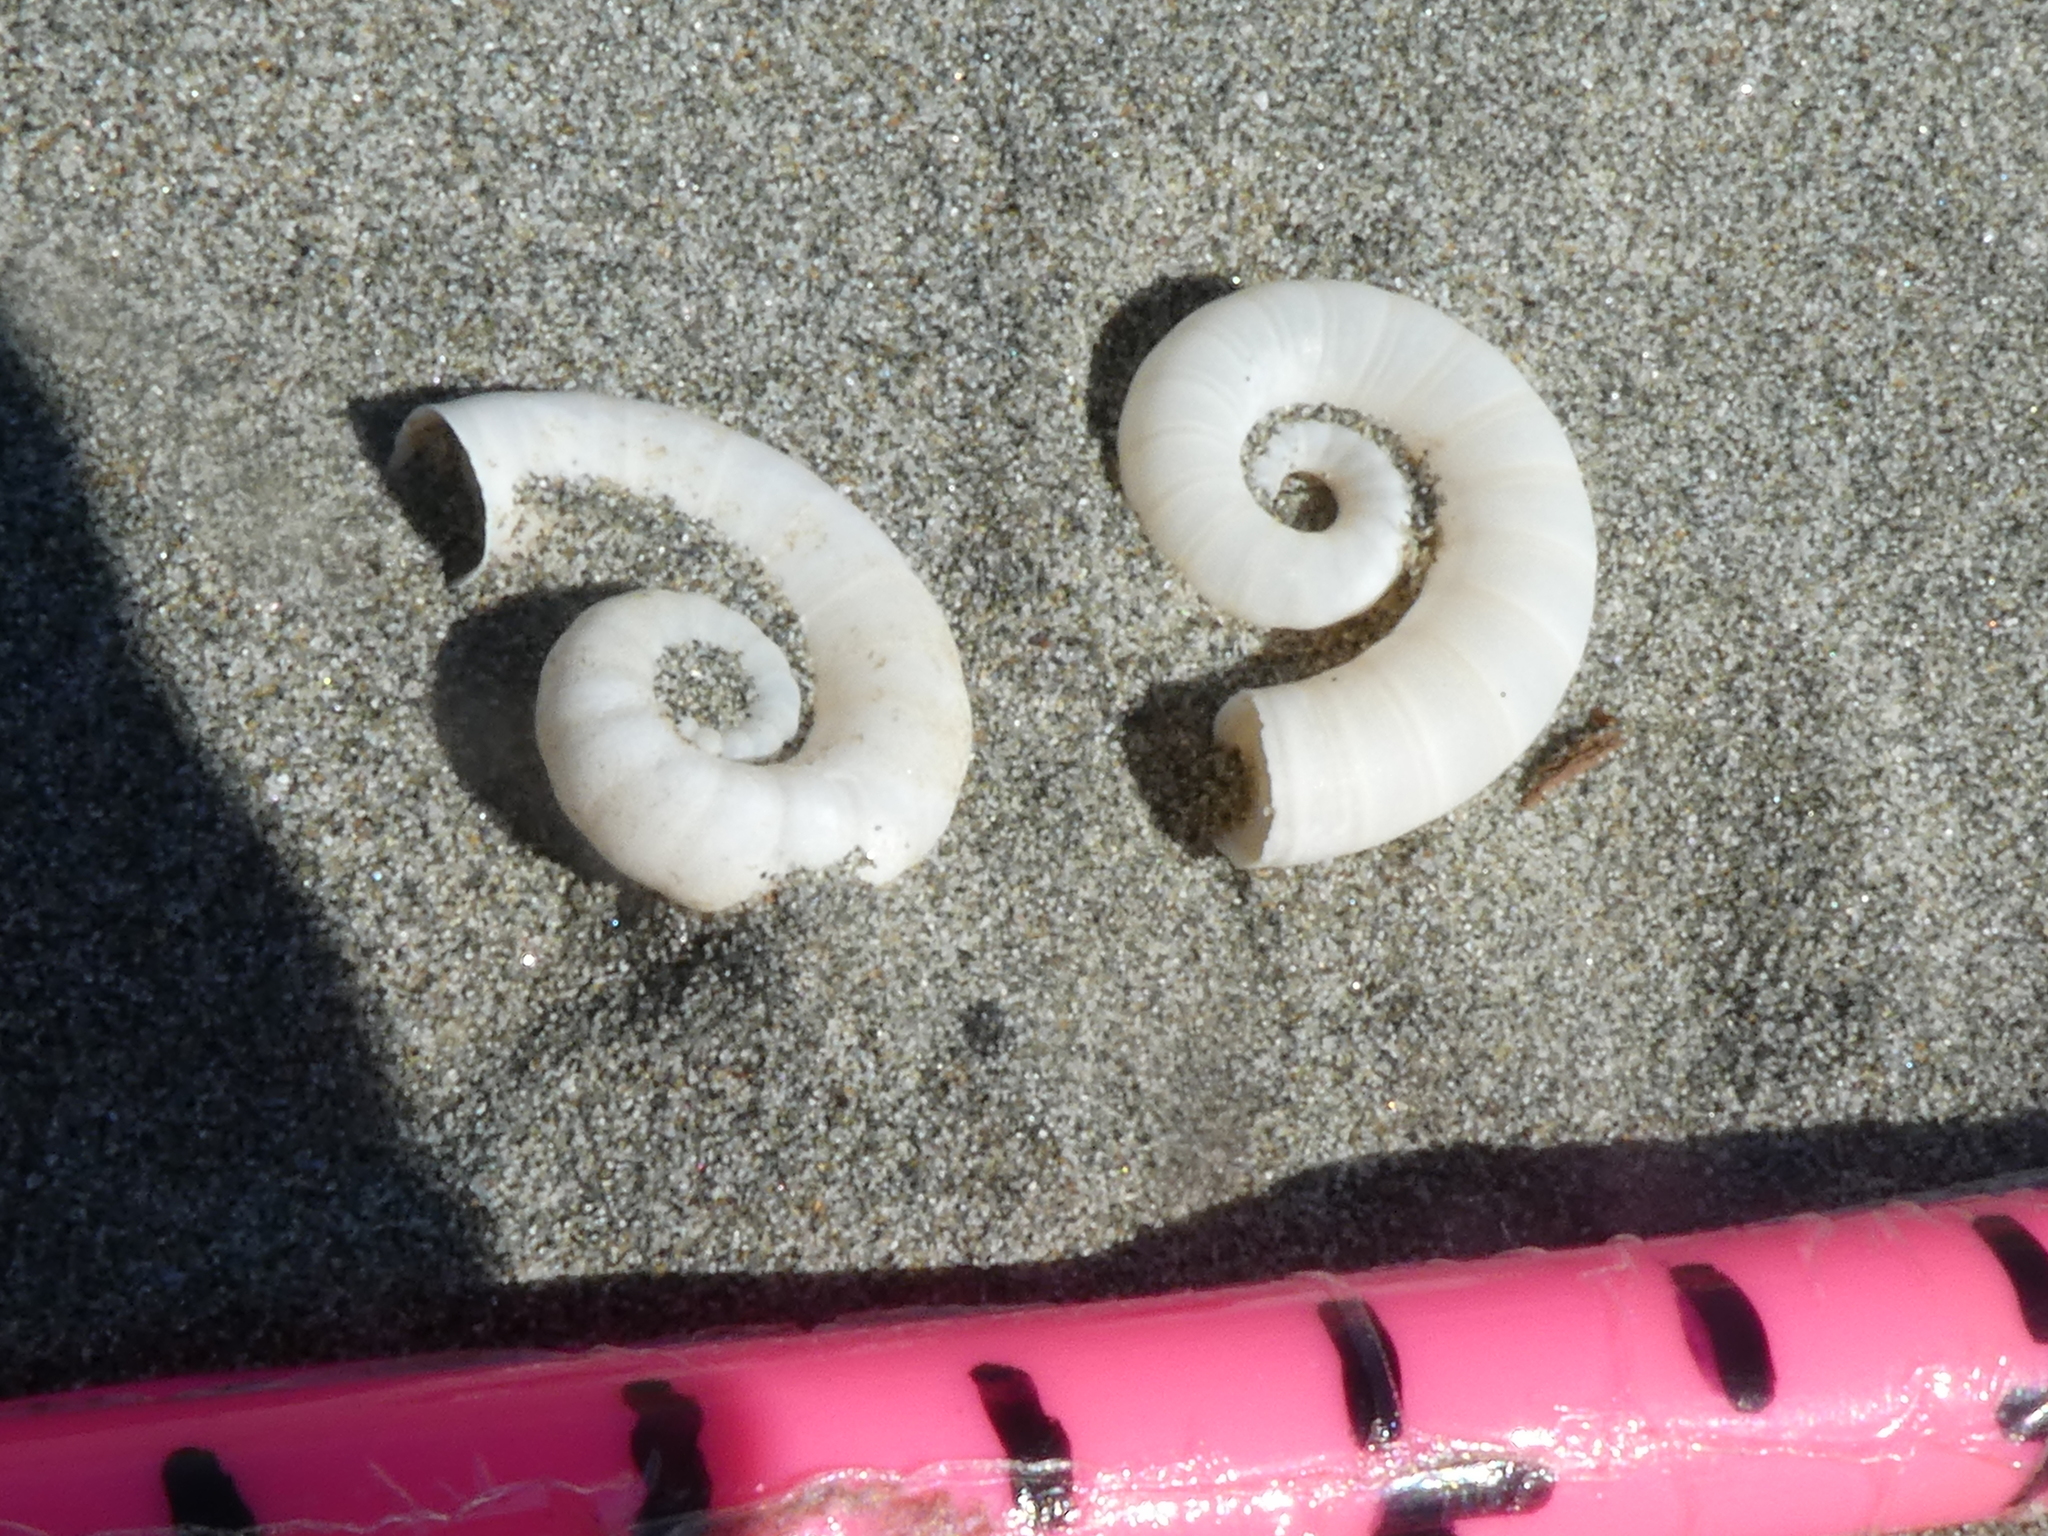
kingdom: Animalia
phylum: Mollusca
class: Cephalopoda
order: Spirulida
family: Spirulidae
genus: Spirula
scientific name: Spirula spirula
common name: Ram's horn squid
